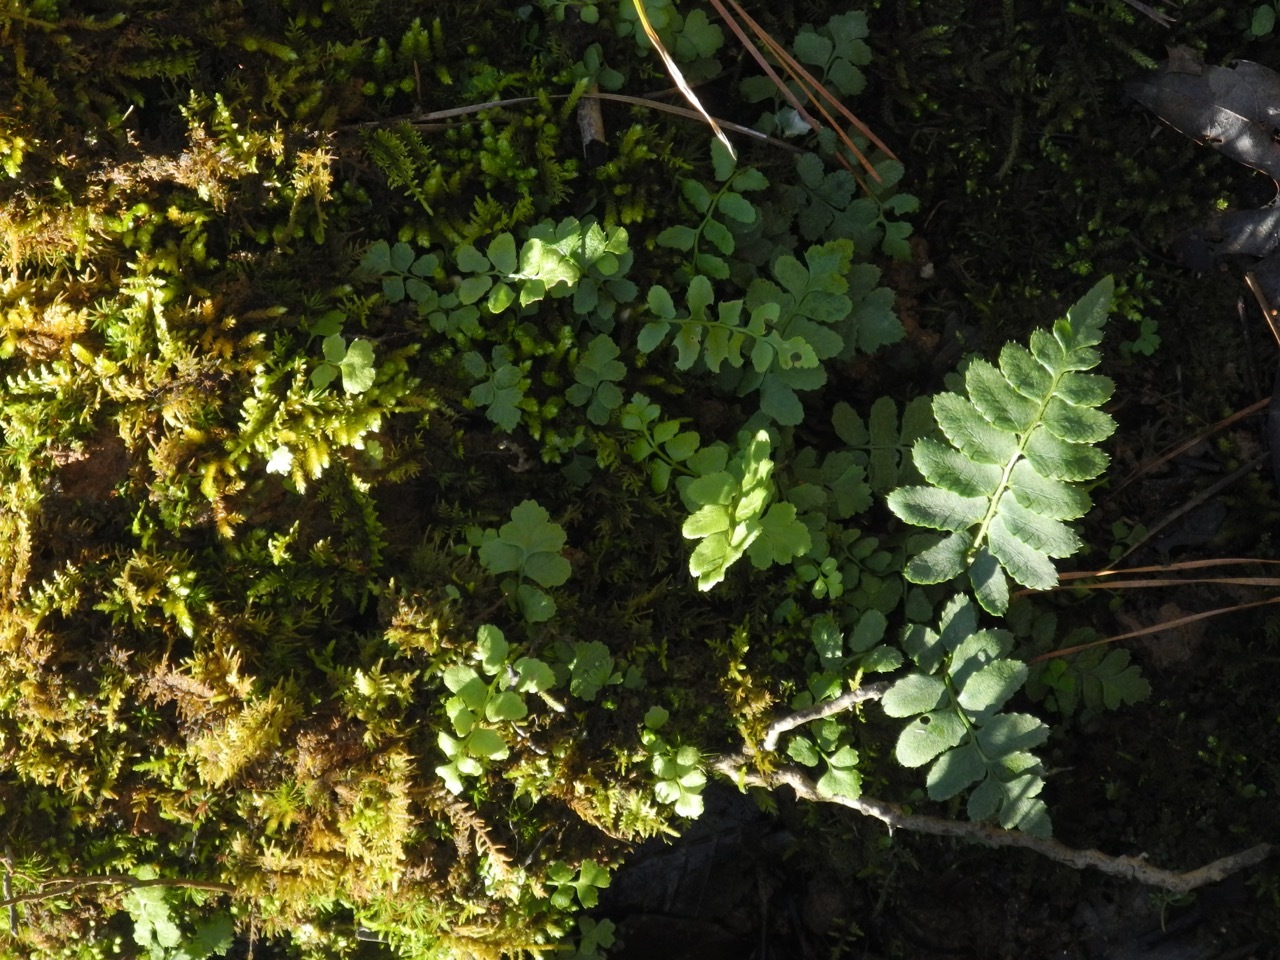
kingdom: Plantae
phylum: Tracheophyta
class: Polypodiopsida
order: Polypodiales
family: Dryopteridaceae
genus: Polystichum
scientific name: Polystichum acrostichoides
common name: Christmas fern
